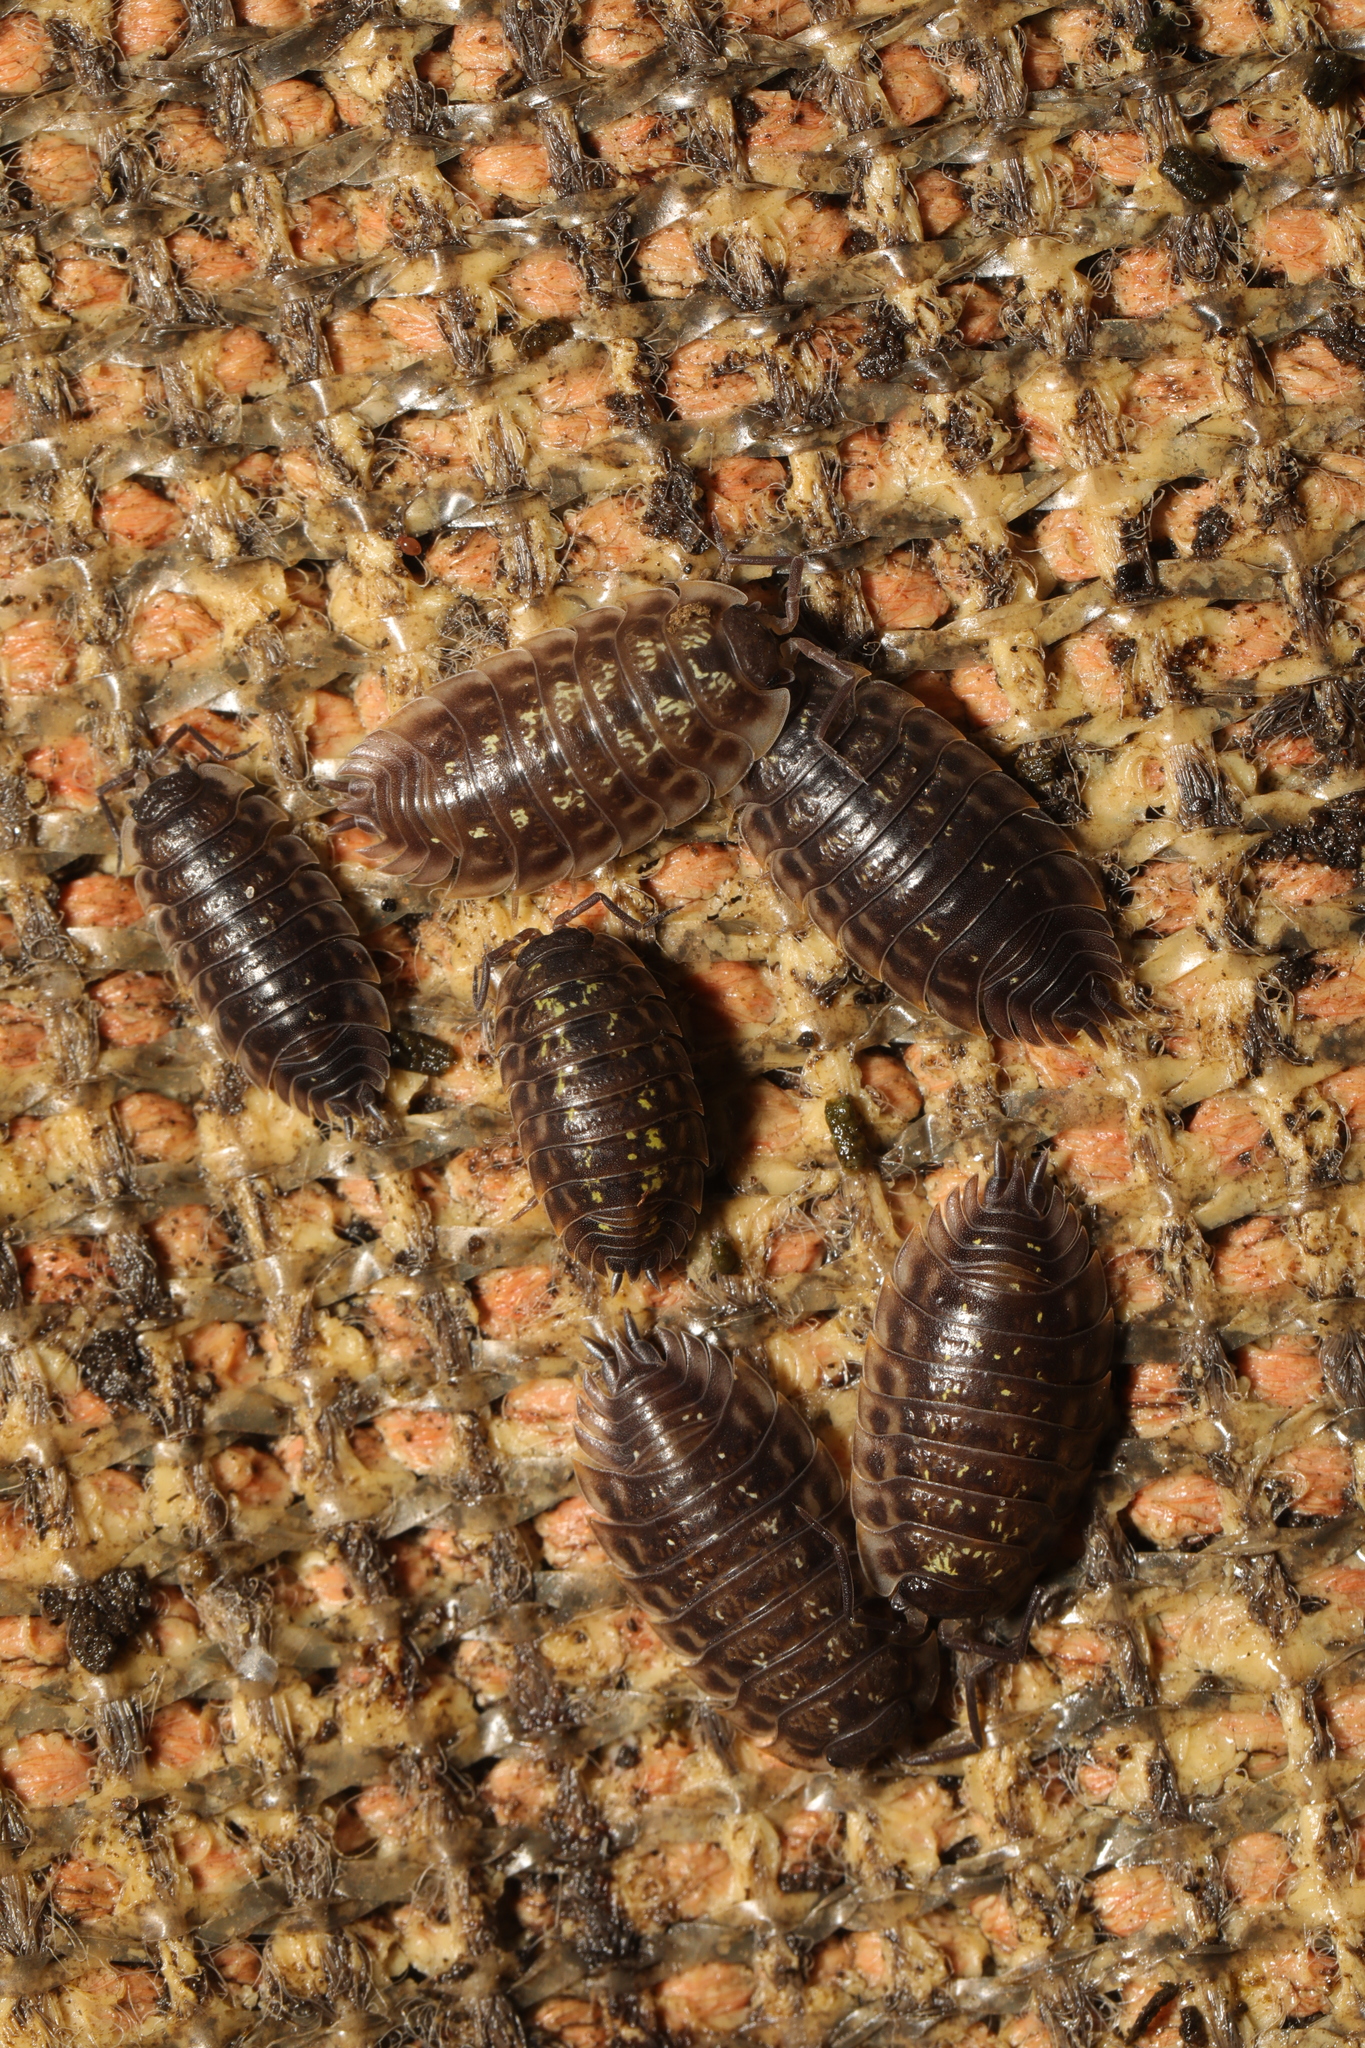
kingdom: Animalia
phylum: Arthropoda
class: Malacostraca
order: Isopoda
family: Oniscidae
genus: Oniscus
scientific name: Oniscus asellus
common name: Common shiny woodlouse
